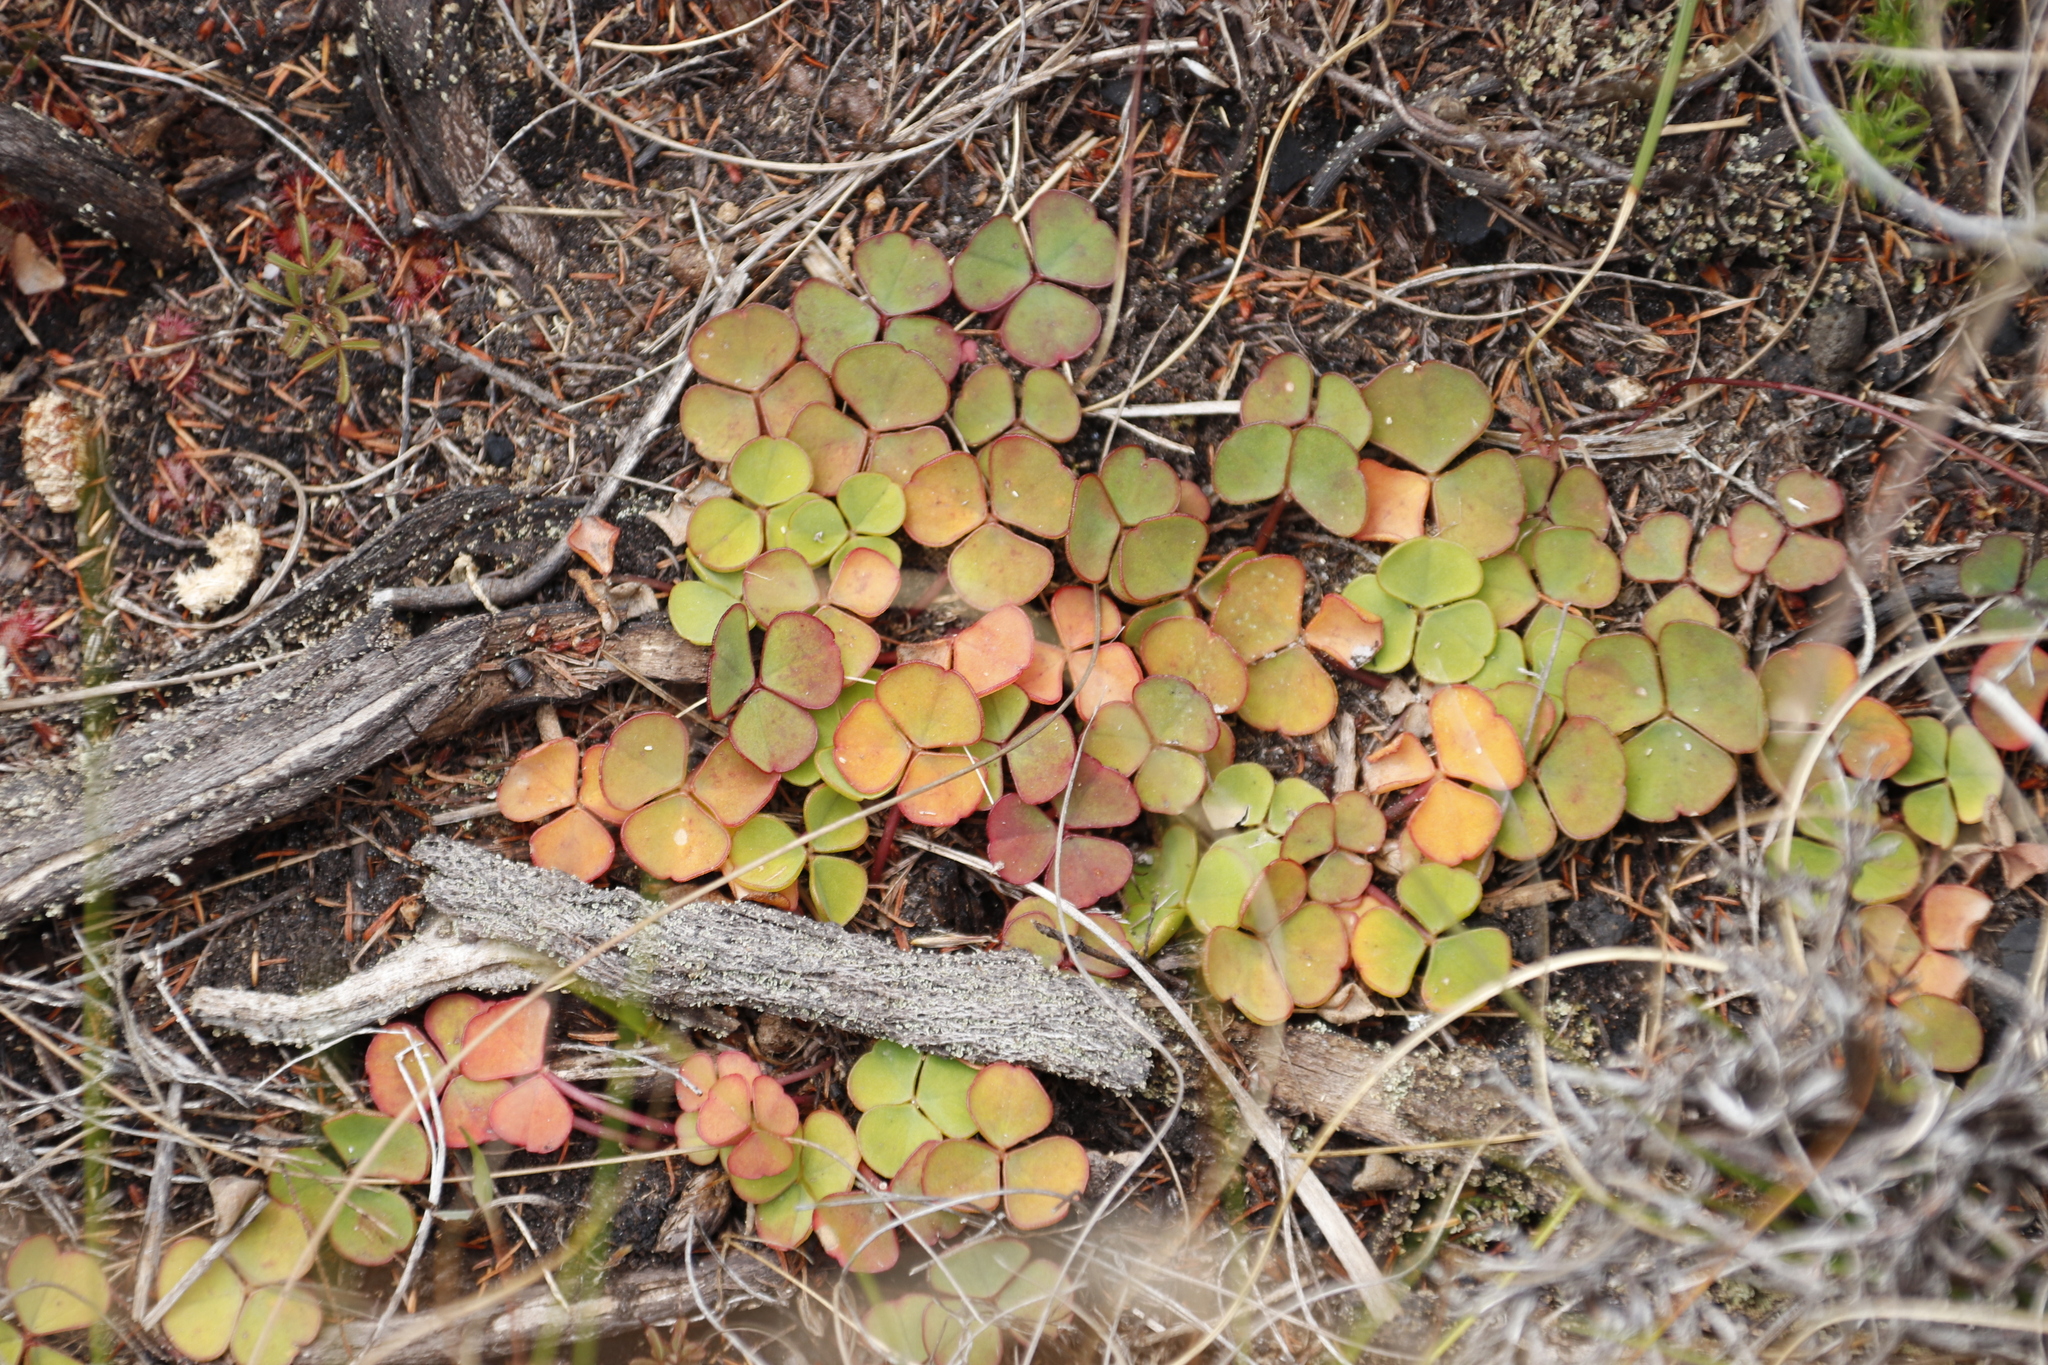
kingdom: Plantae
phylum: Tracheophyta
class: Magnoliopsida
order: Oxalidales
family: Oxalidaceae
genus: Oxalis
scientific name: Oxalis commutata
